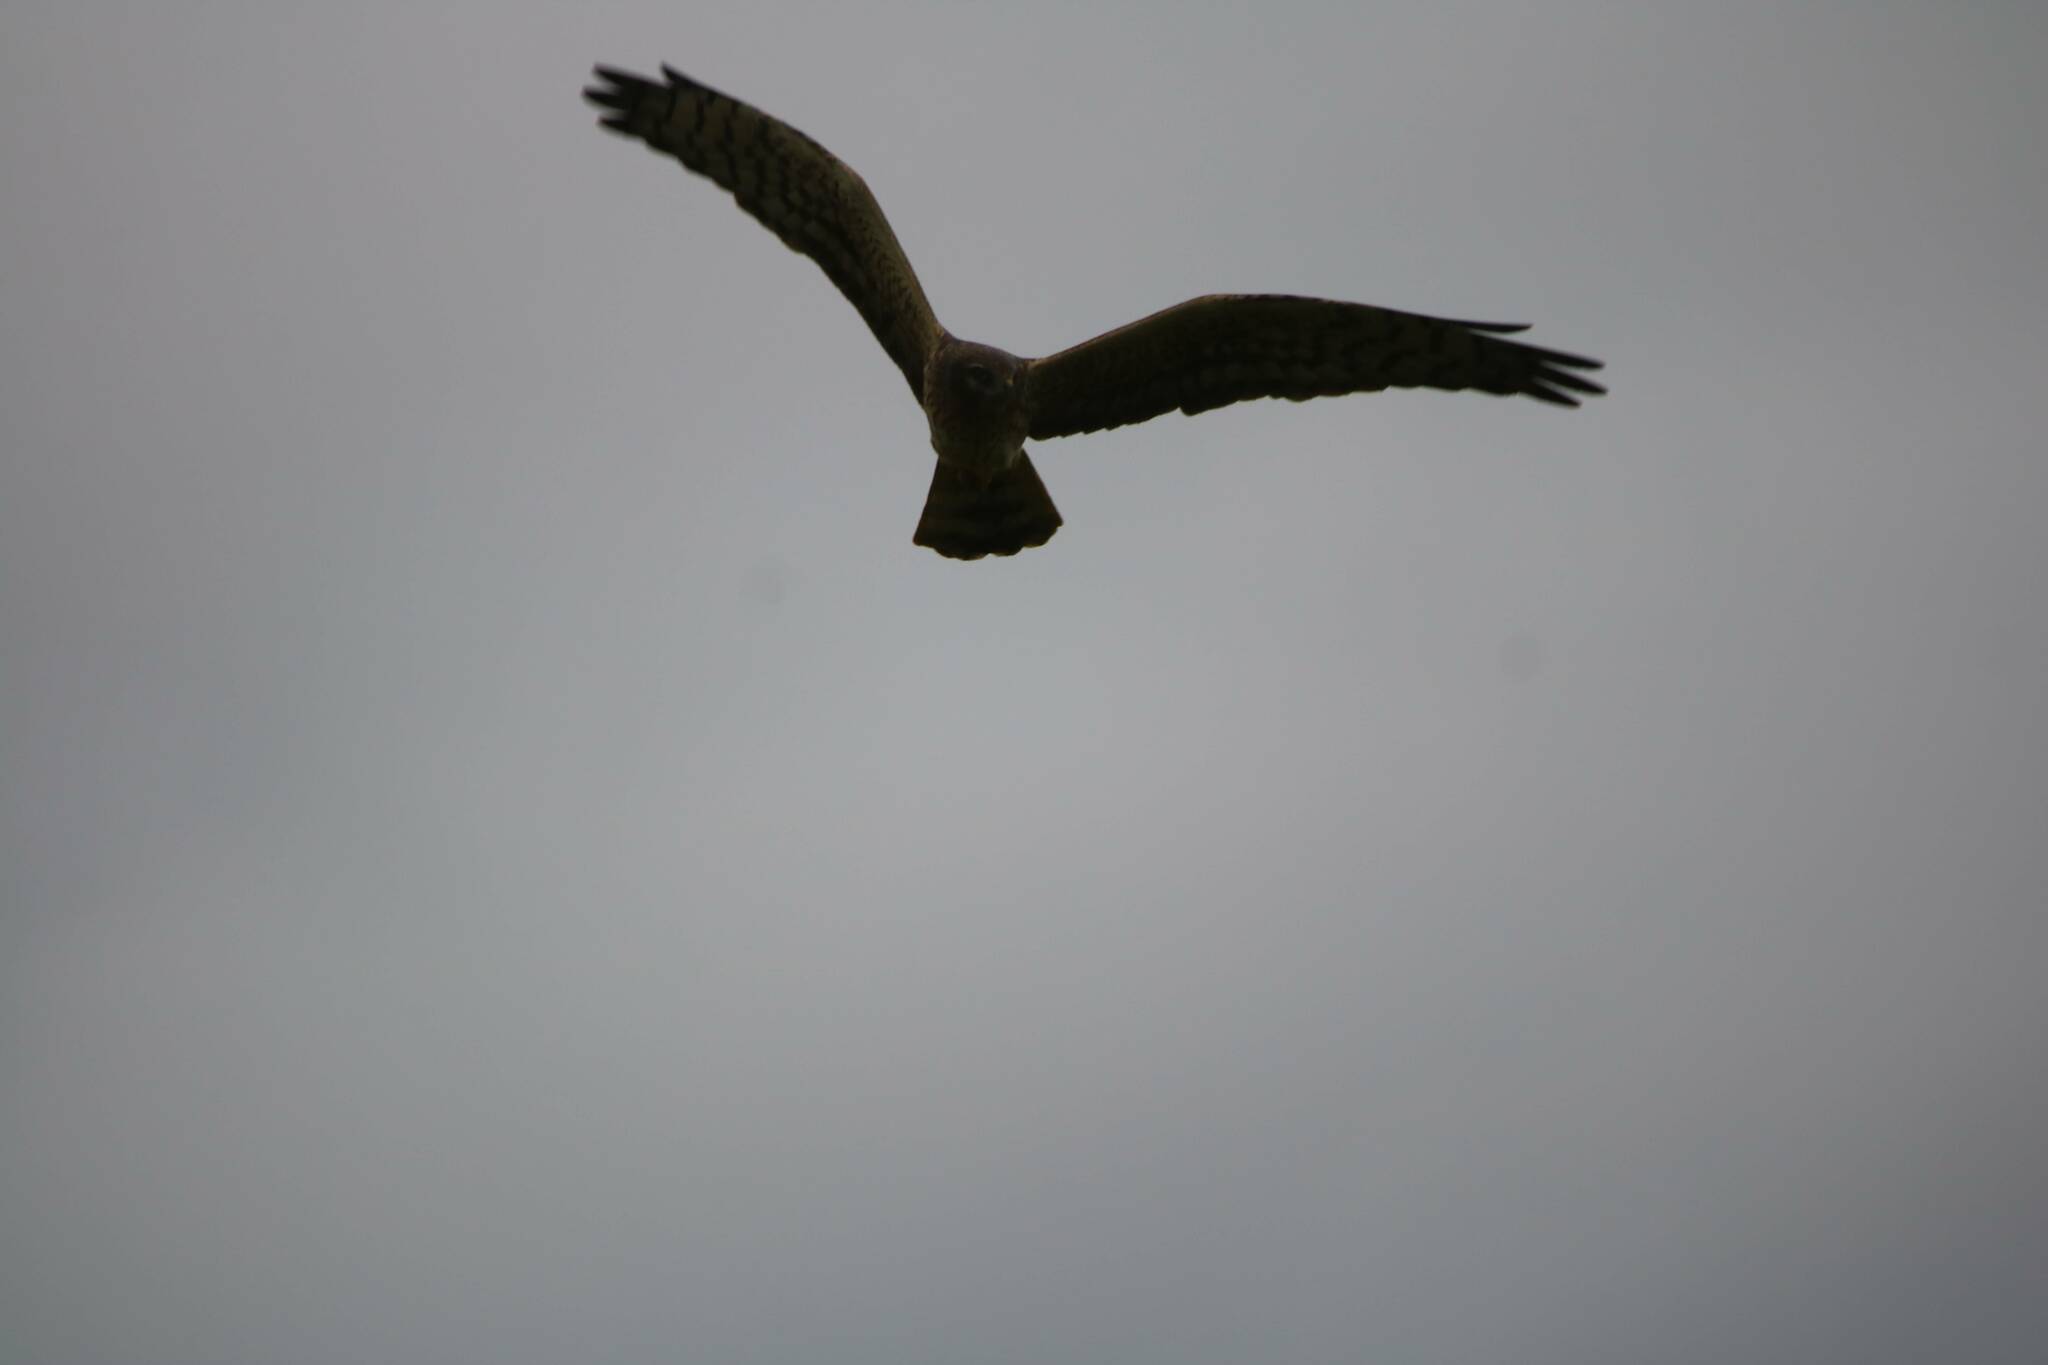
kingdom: Animalia
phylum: Chordata
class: Aves
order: Accipitriformes
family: Accipitridae
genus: Circus
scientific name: Circus pygargus
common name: Montagu's harrier
